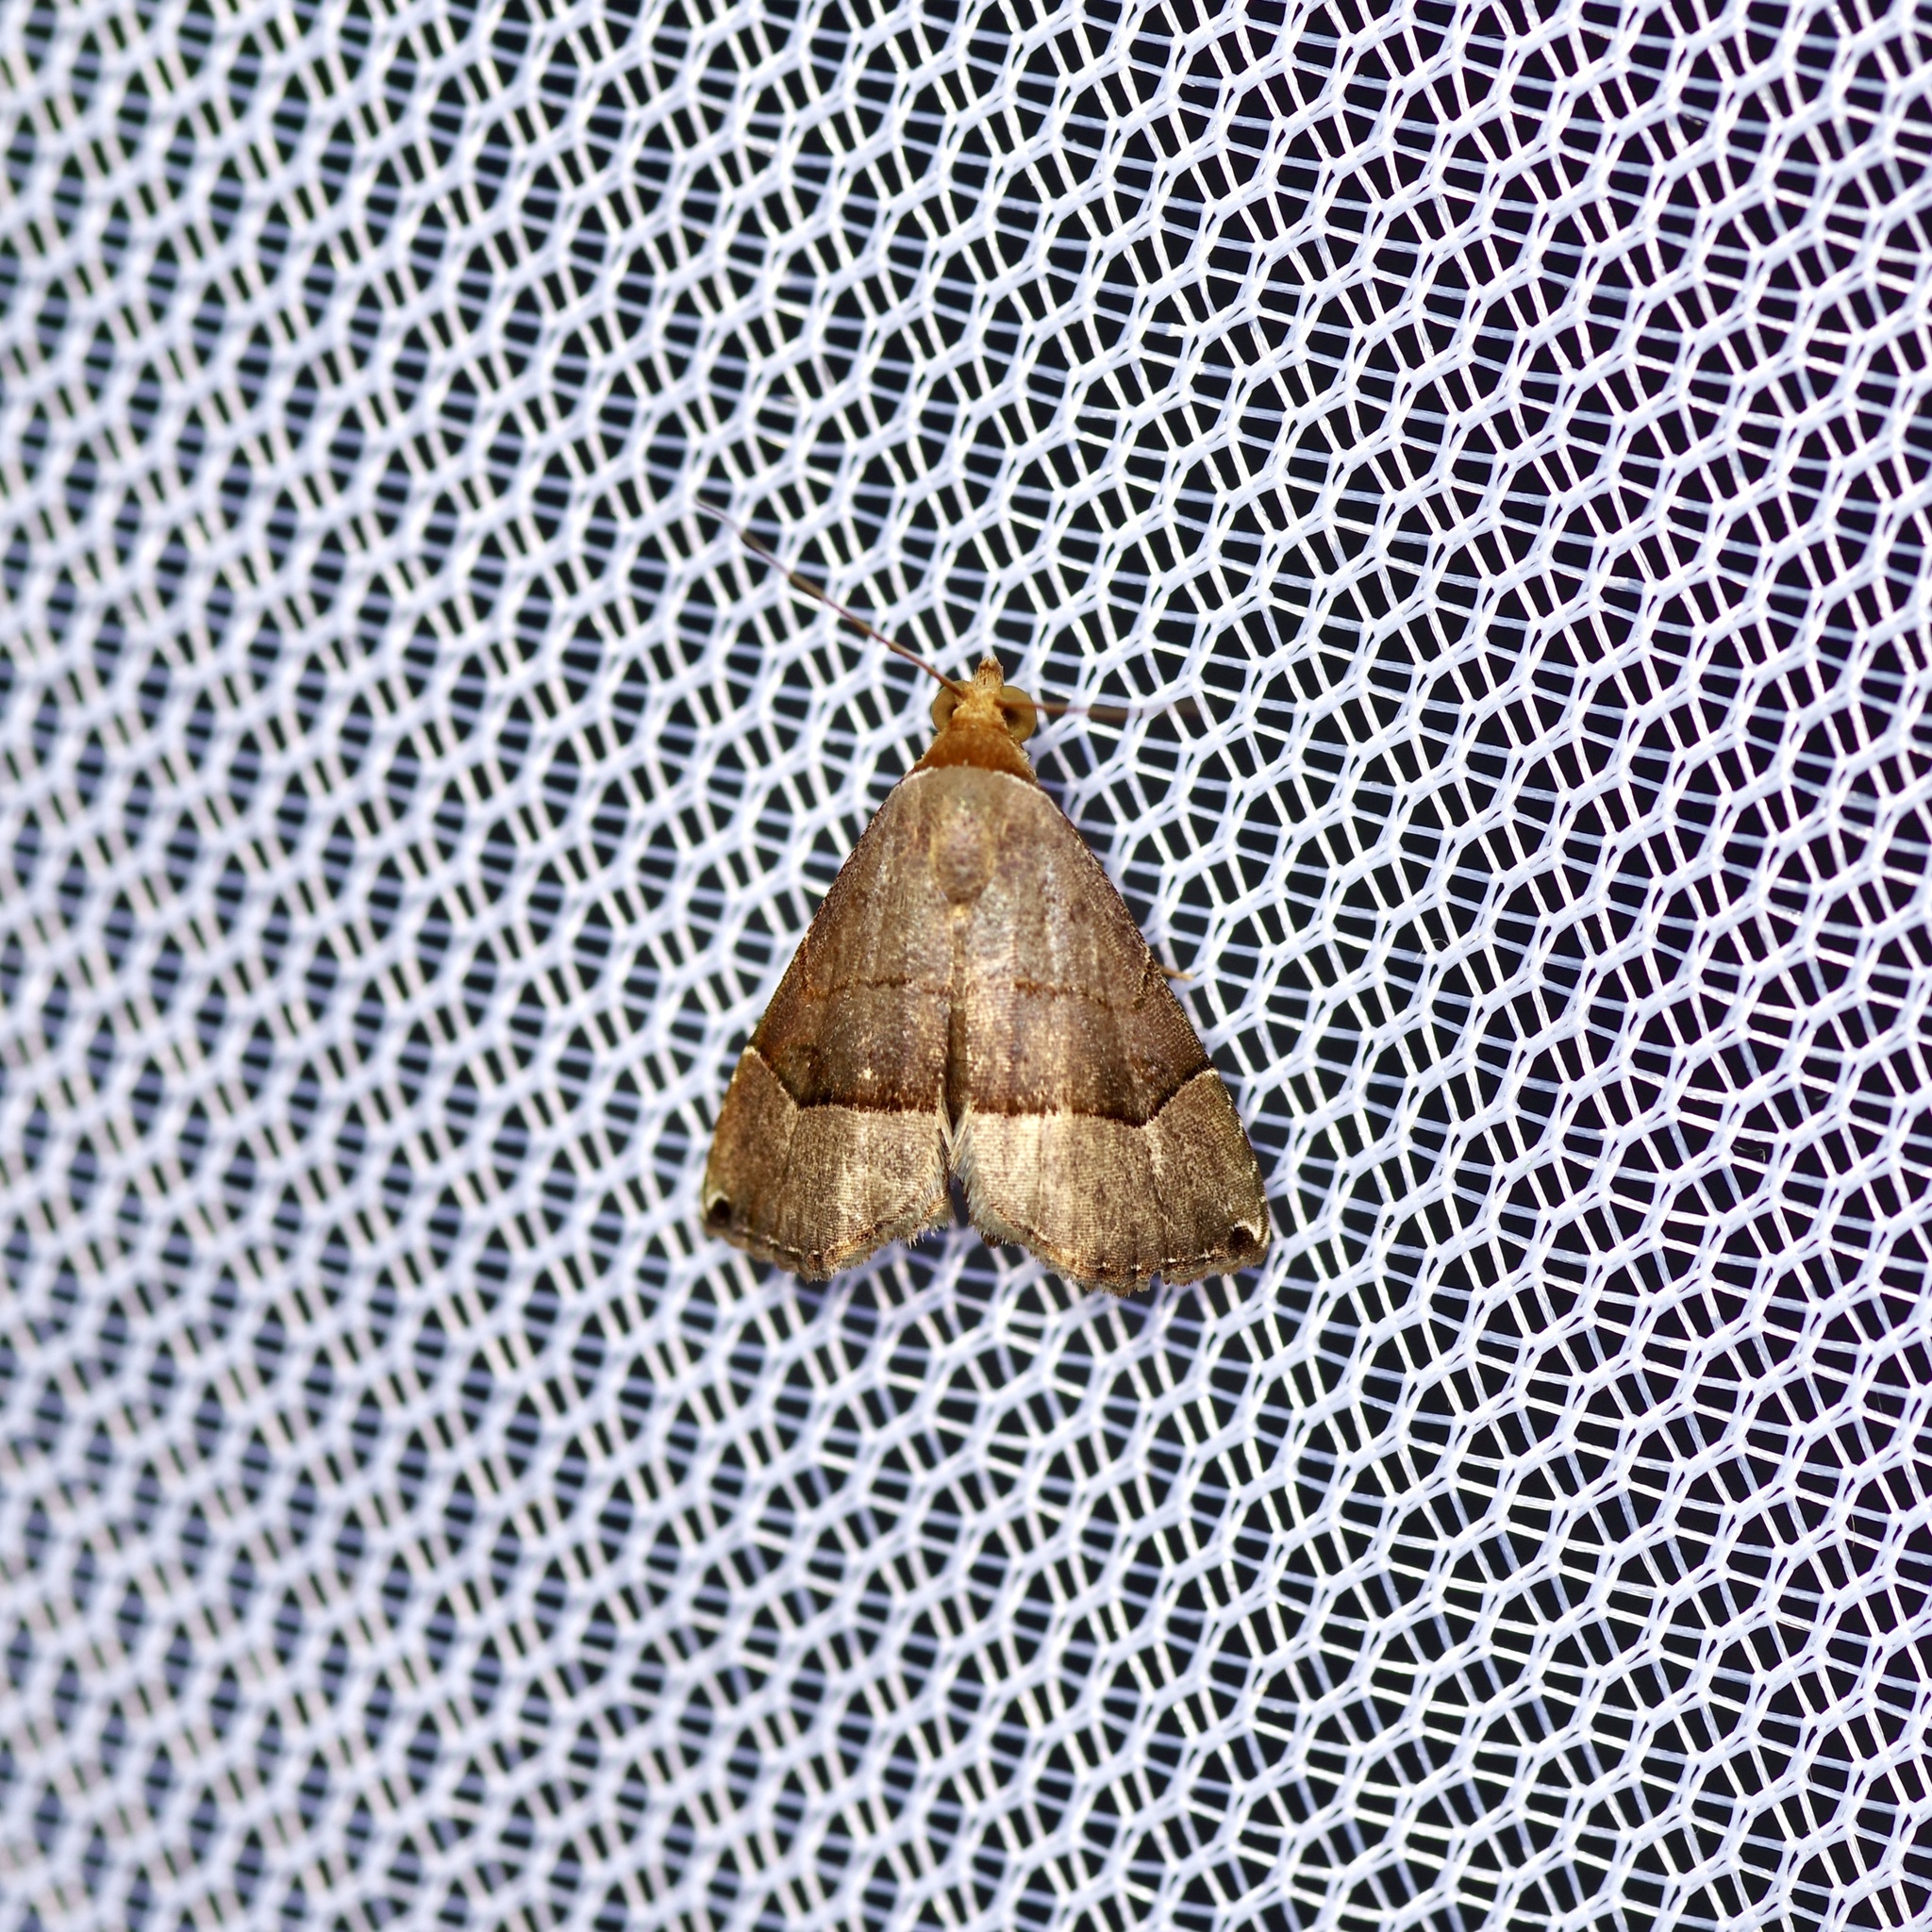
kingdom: Animalia
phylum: Arthropoda
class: Insecta
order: Lepidoptera
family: Noctuidae
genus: Abacena
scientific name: Abacena mundula
